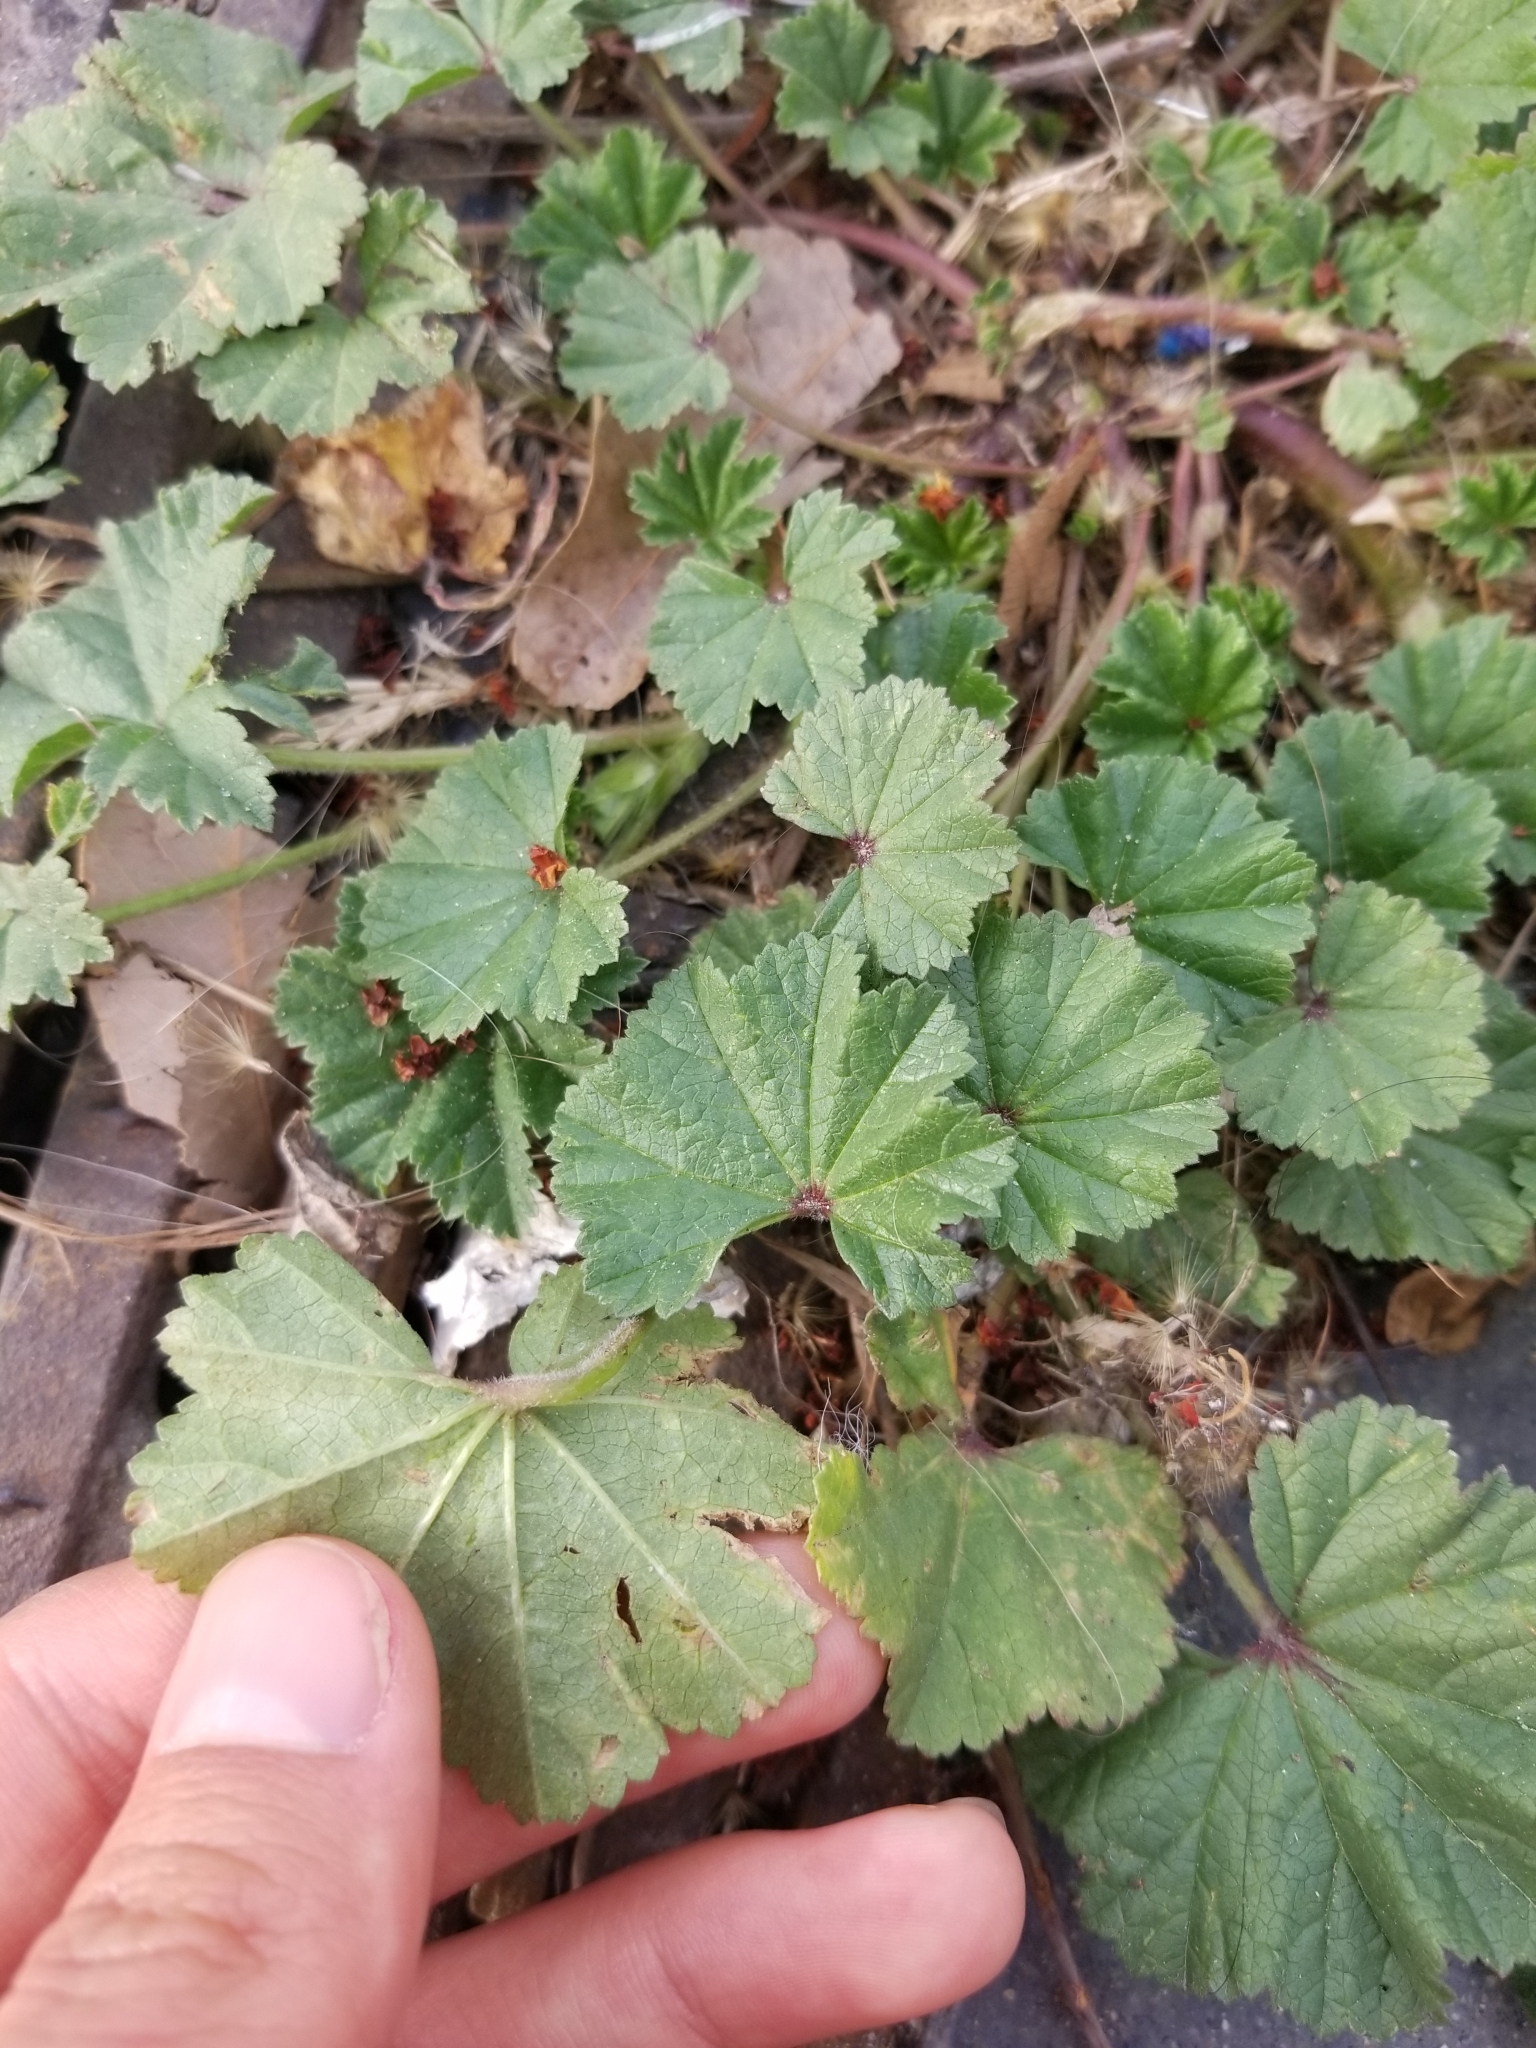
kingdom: Plantae
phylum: Tracheophyta
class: Magnoliopsida
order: Malvales
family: Malvaceae
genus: Malva
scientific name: Malva parviflora
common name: Least mallow
